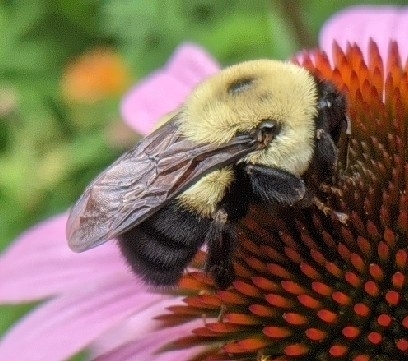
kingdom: Animalia
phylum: Arthropoda
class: Insecta
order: Hymenoptera
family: Apidae
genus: Bombus
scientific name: Bombus griseocollis
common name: Brown-belted bumble bee
